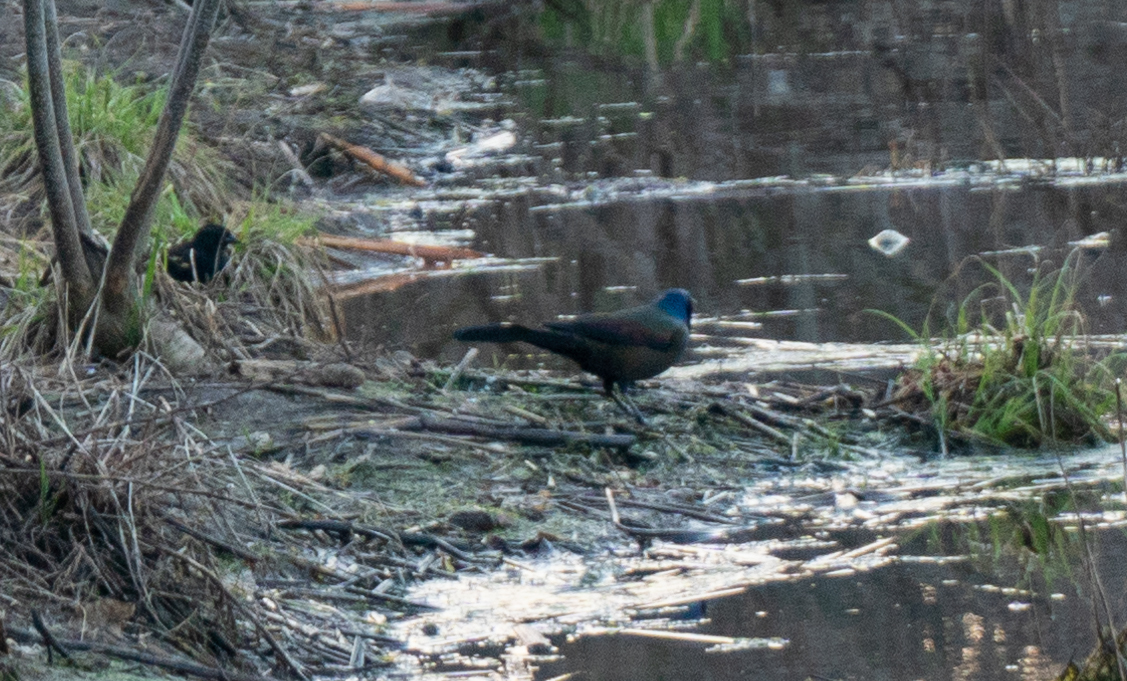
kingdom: Animalia
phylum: Chordata
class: Aves
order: Passeriformes
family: Icteridae
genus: Quiscalus
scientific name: Quiscalus quiscula
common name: Common grackle
